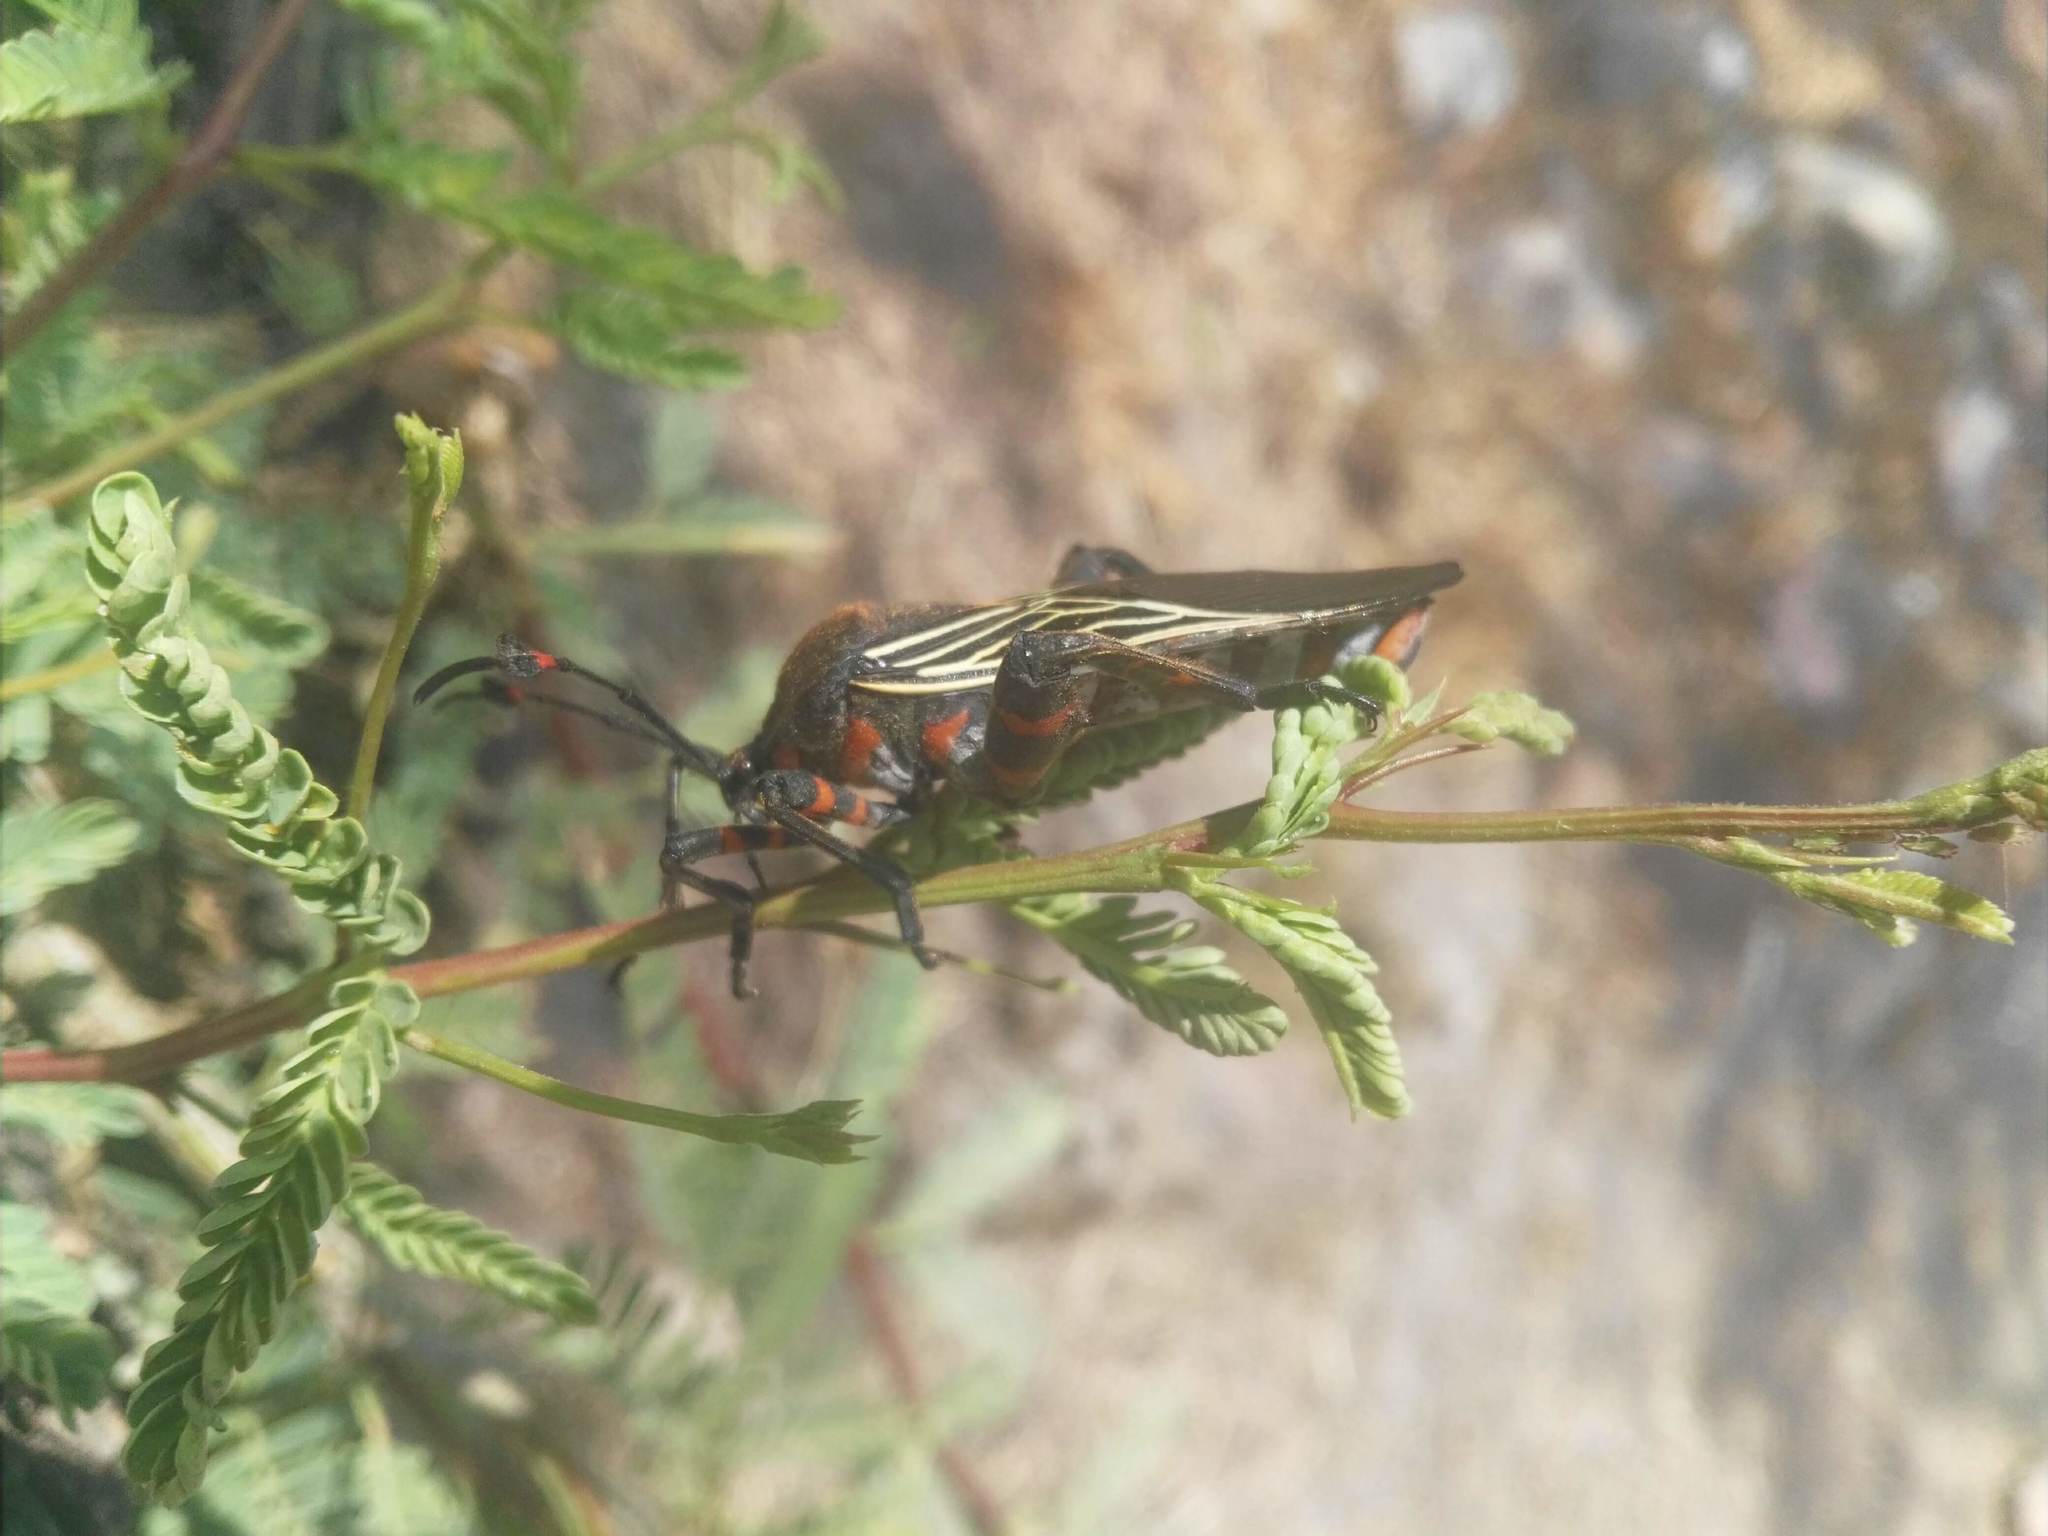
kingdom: Animalia
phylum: Arthropoda
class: Insecta
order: Hemiptera
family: Coreidae
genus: Thasus
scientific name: Thasus
